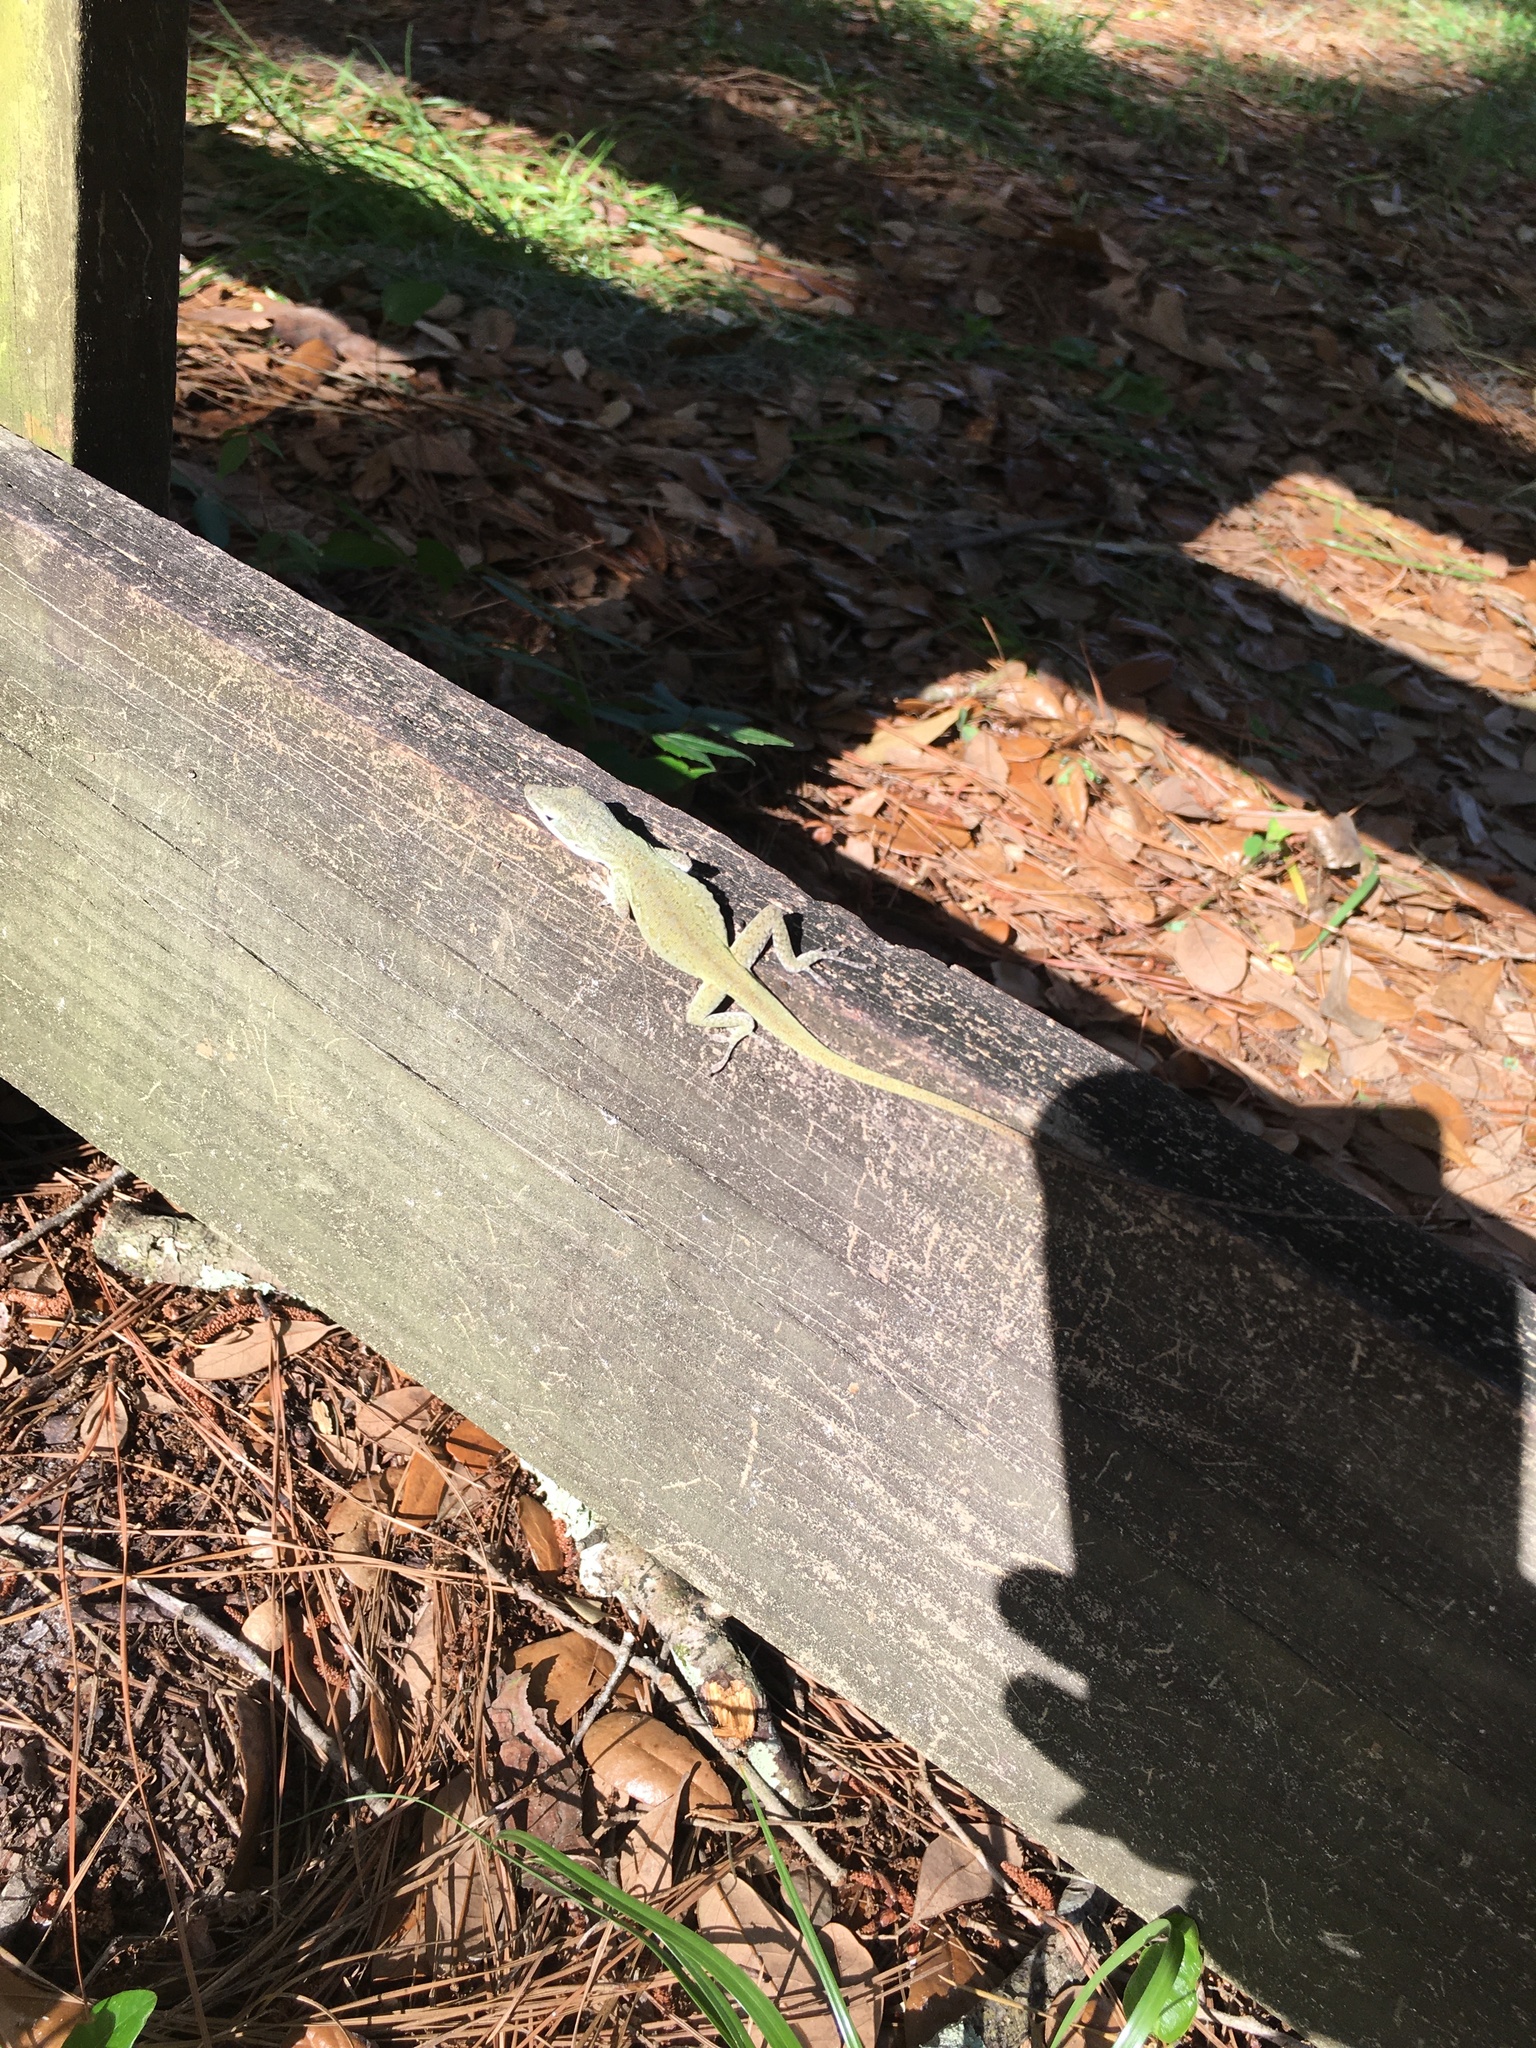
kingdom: Animalia
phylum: Chordata
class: Squamata
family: Dactyloidae
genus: Anolis
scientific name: Anolis carolinensis
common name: Green anole
